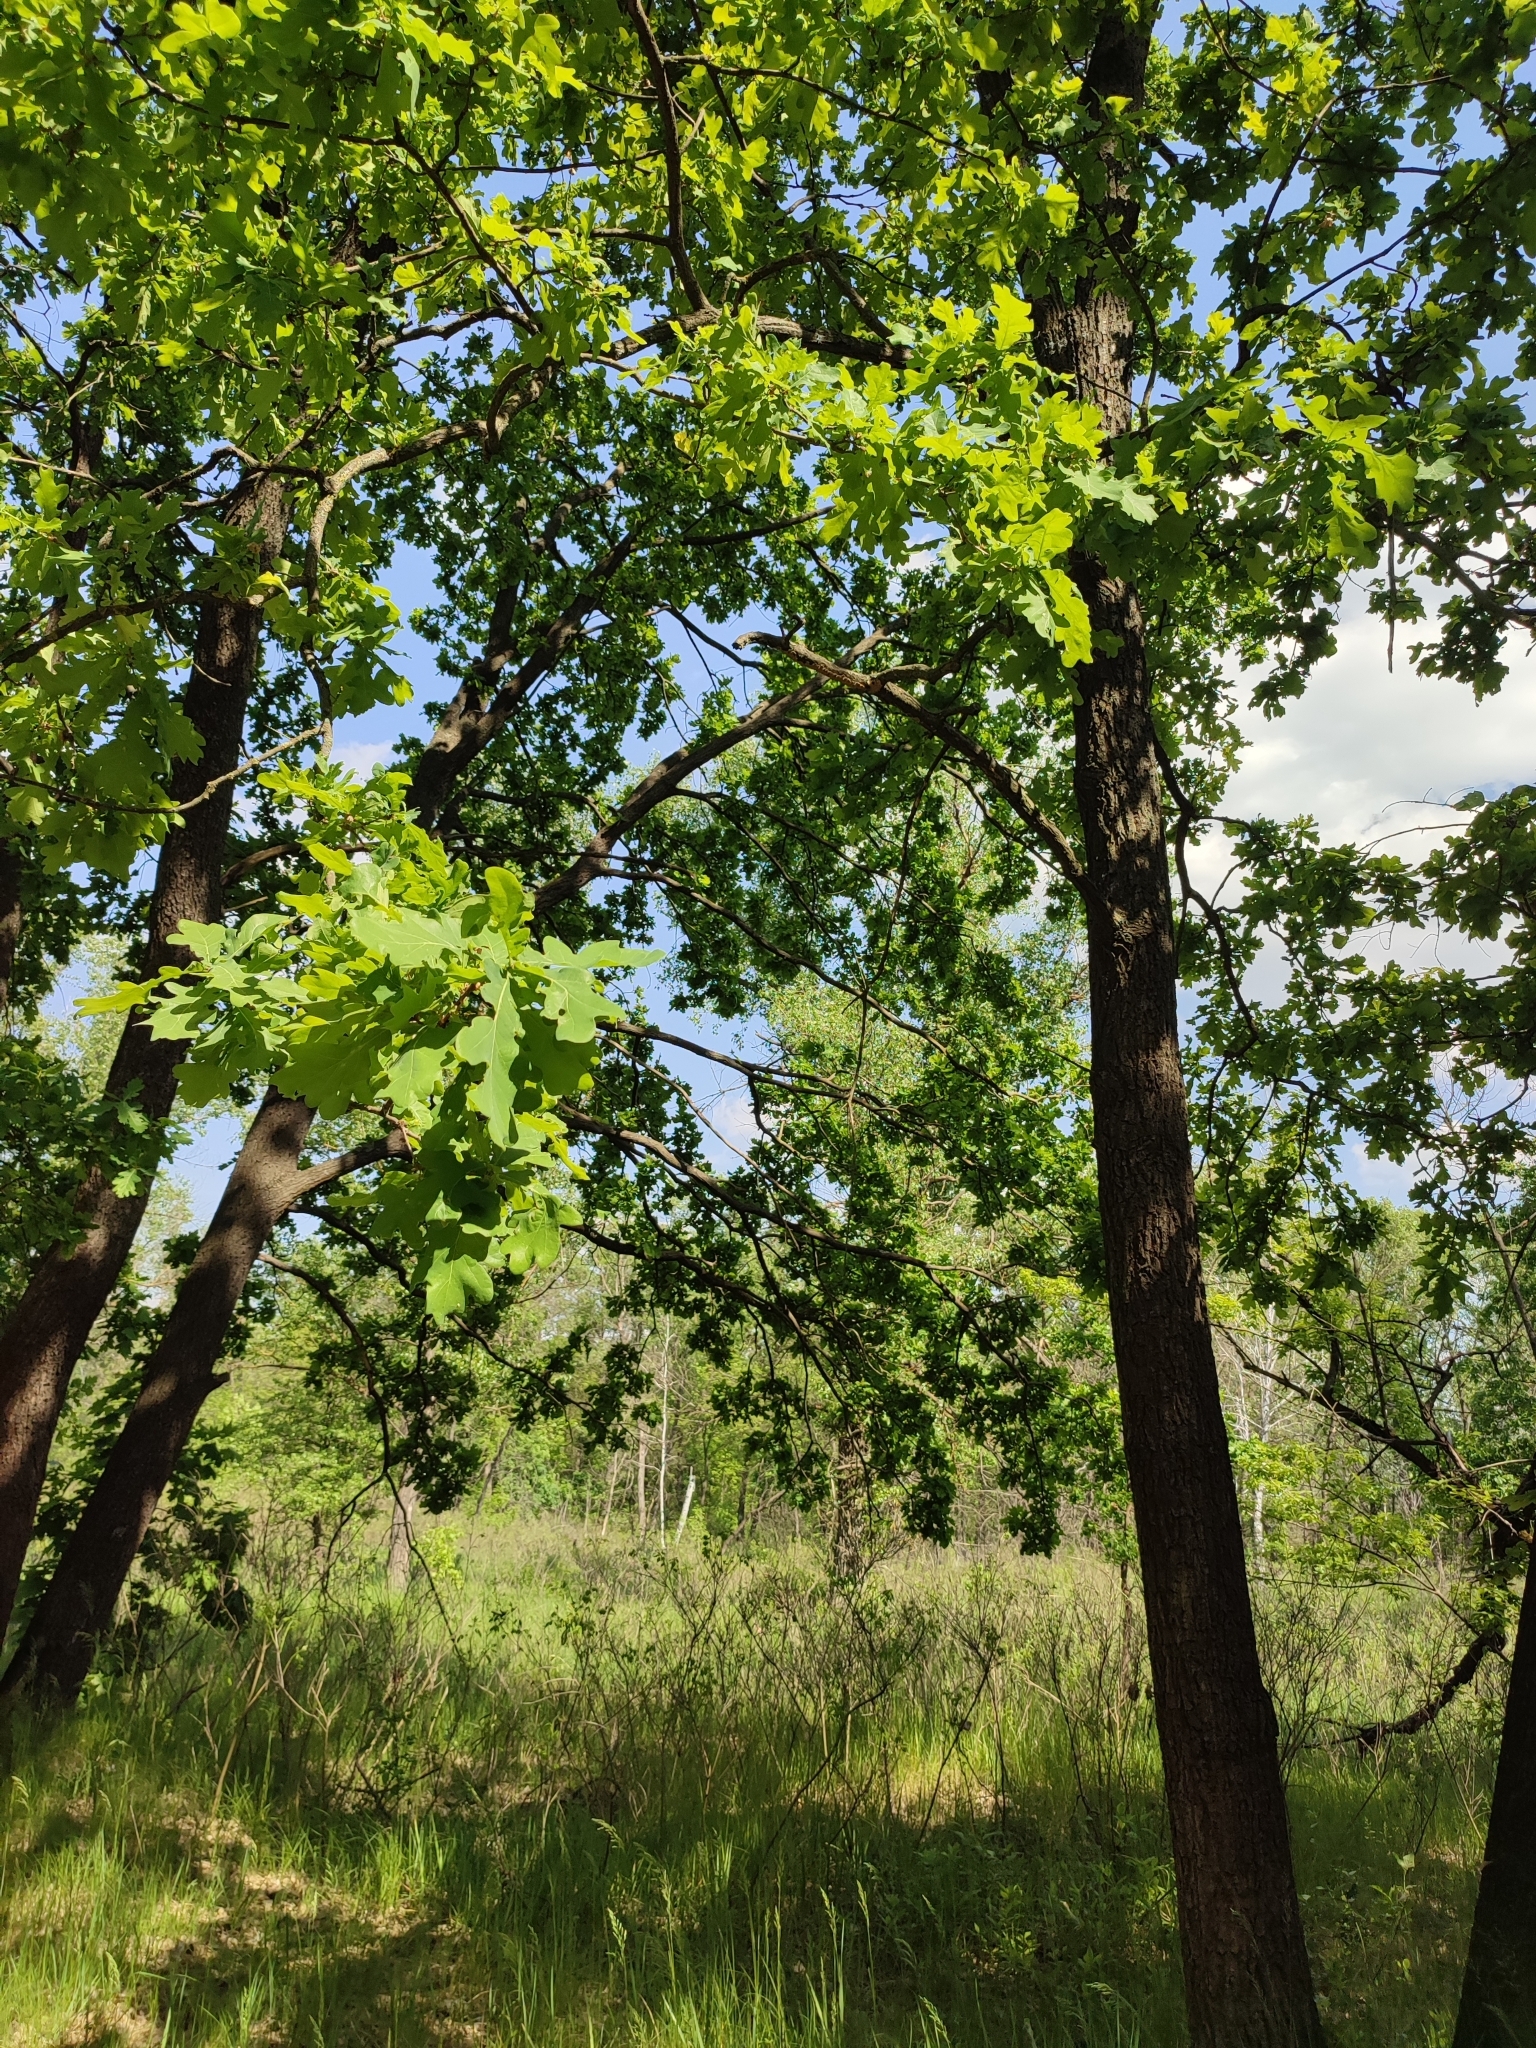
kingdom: Plantae
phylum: Tracheophyta
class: Magnoliopsida
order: Fagales
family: Fagaceae
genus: Quercus
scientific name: Quercus robur
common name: Pedunculate oak
